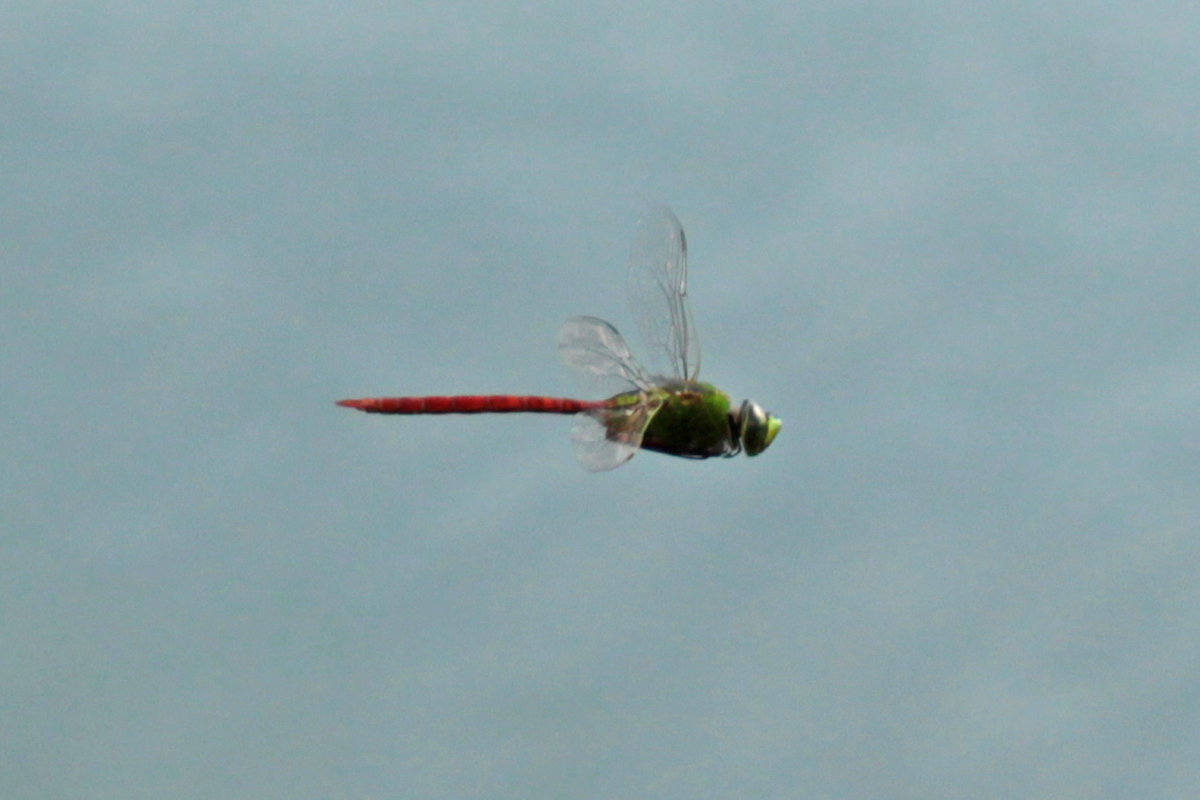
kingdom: Animalia
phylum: Arthropoda
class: Insecta
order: Odonata
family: Aeshnidae
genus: Anax
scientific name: Anax longipes
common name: Comet darner
